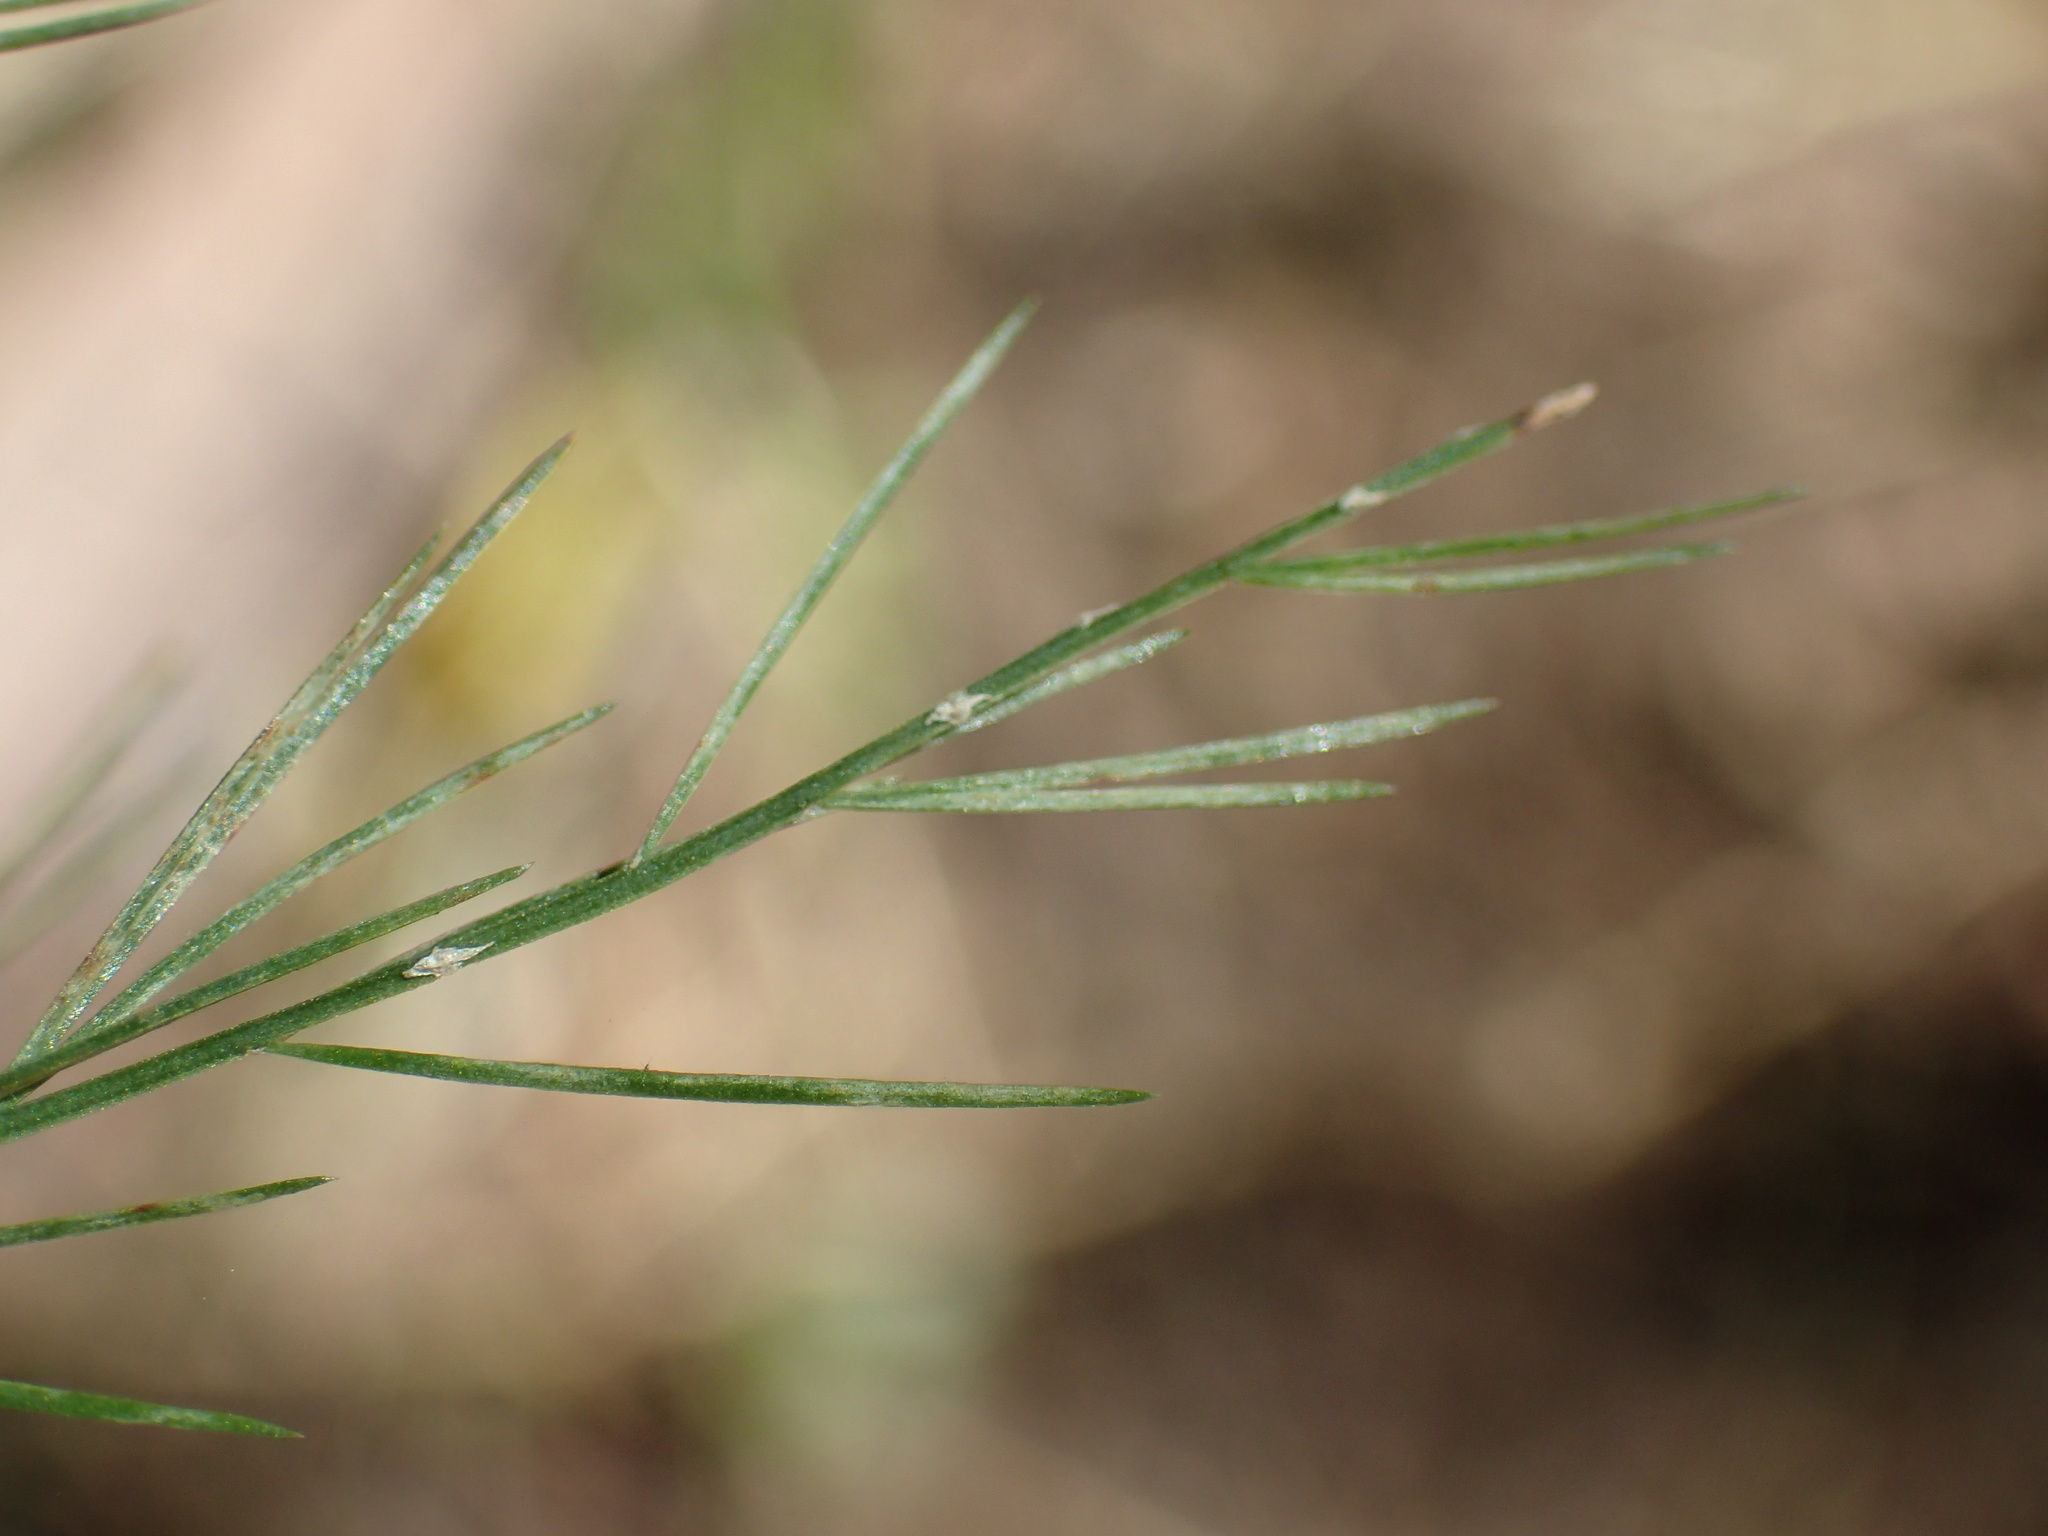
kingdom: Plantae
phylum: Tracheophyta
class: Liliopsida
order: Asparagales
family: Asparagaceae
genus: Asparagus
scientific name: Asparagus virgatus
